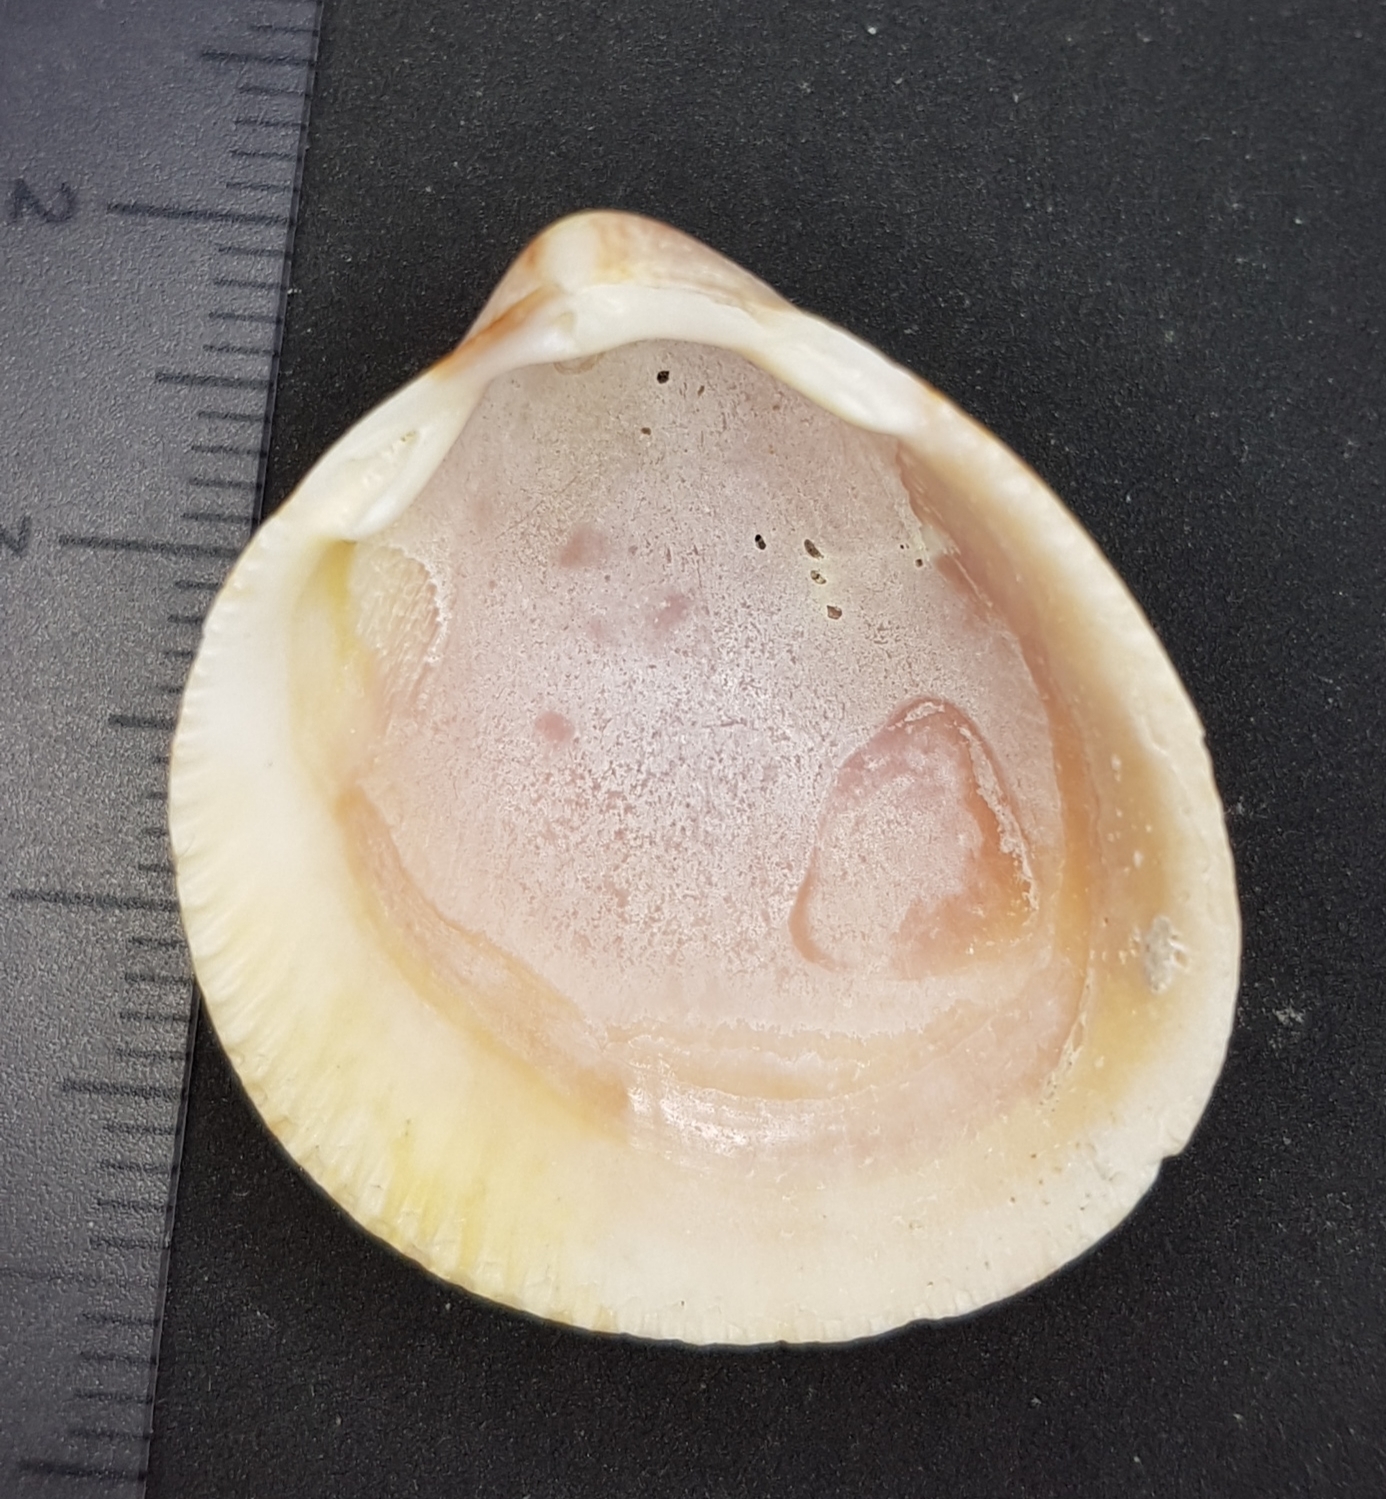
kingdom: Animalia
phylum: Mollusca
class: Bivalvia
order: Cardiida
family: Cardiidae
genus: Laevicardium
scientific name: Laevicardium crassum
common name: Norway cockle
